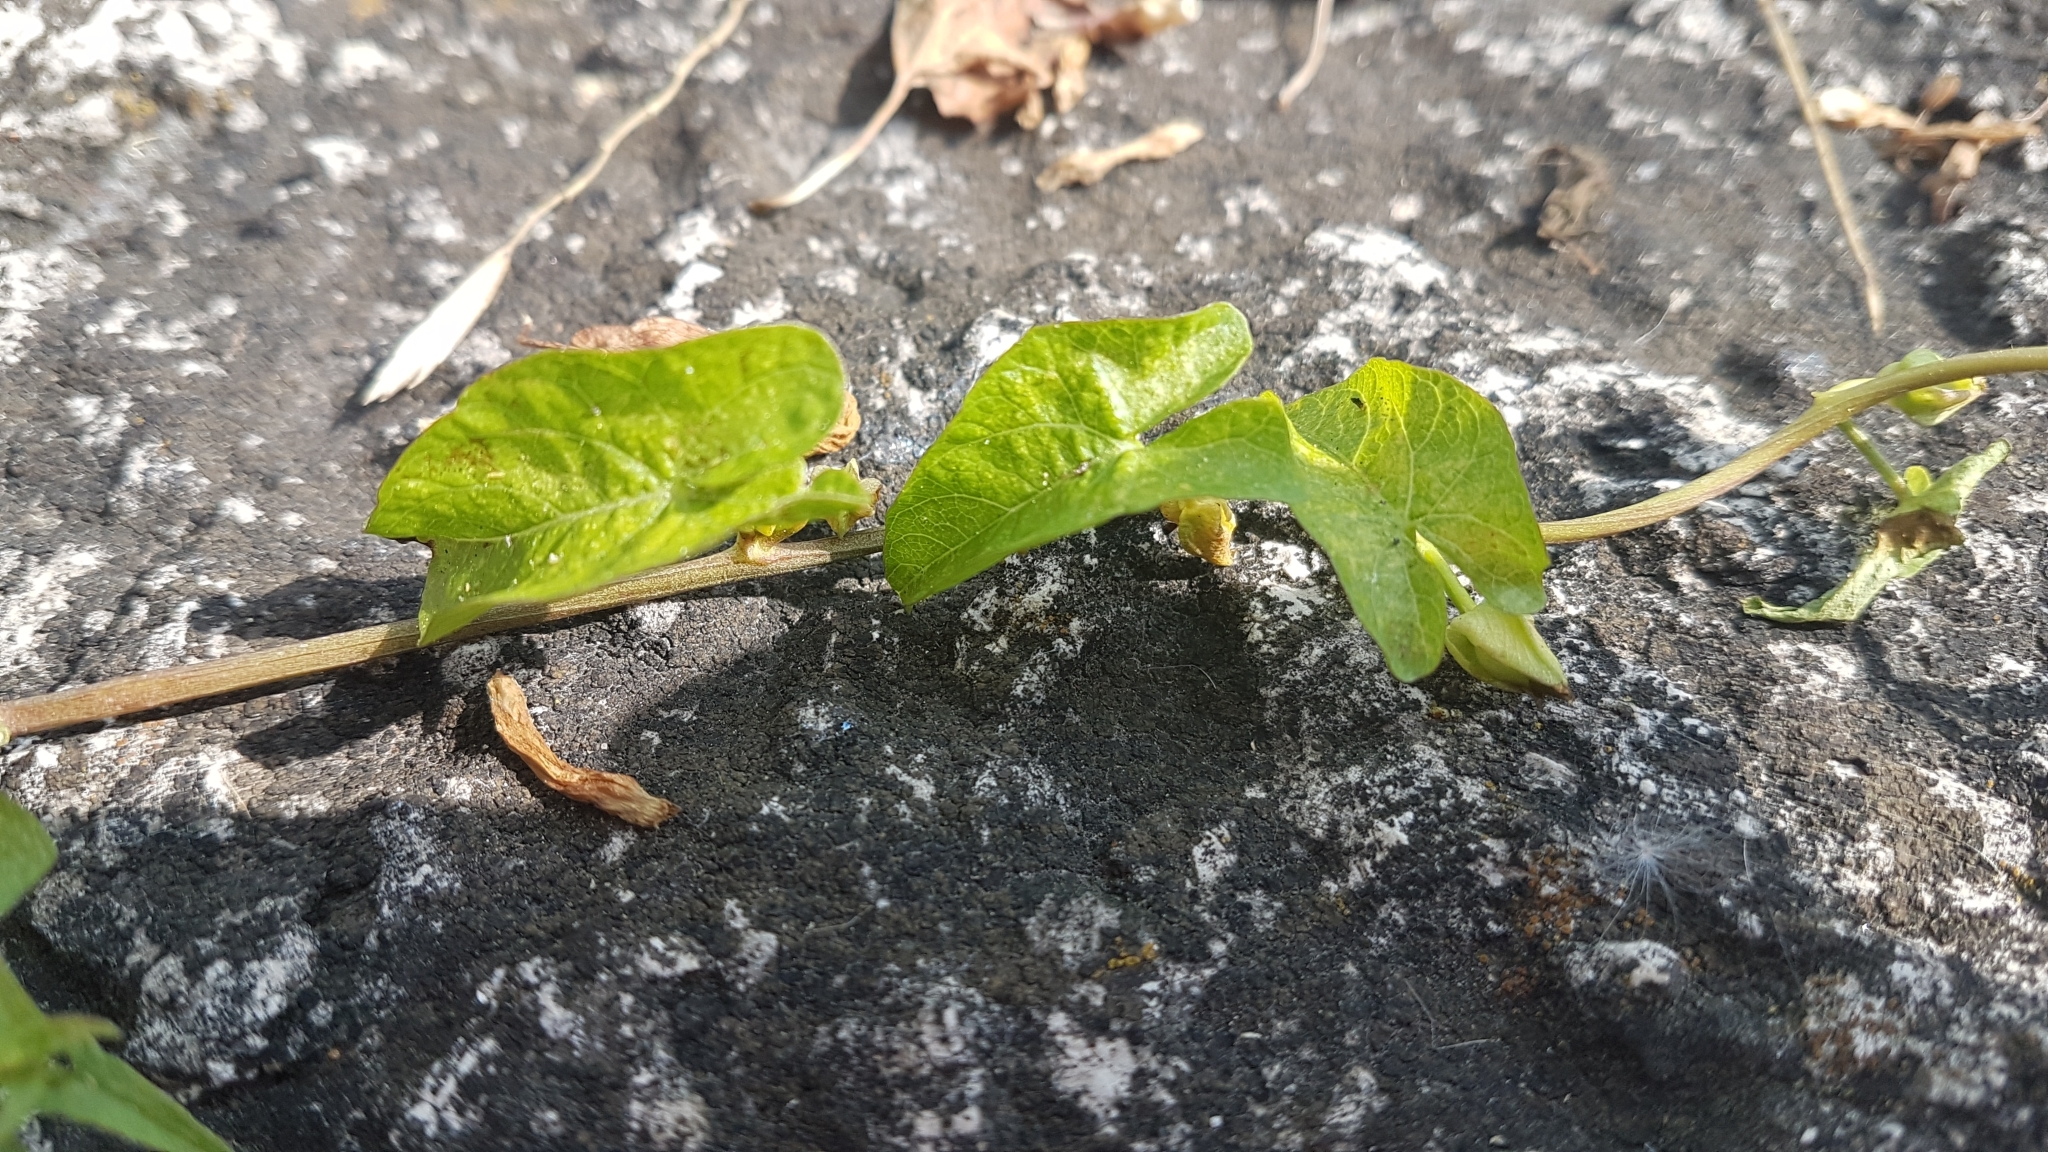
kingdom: Plantae
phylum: Tracheophyta
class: Magnoliopsida
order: Solanales
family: Convolvulaceae
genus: Convolvulus
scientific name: Convolvulus arvensis
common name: Field bindweed
